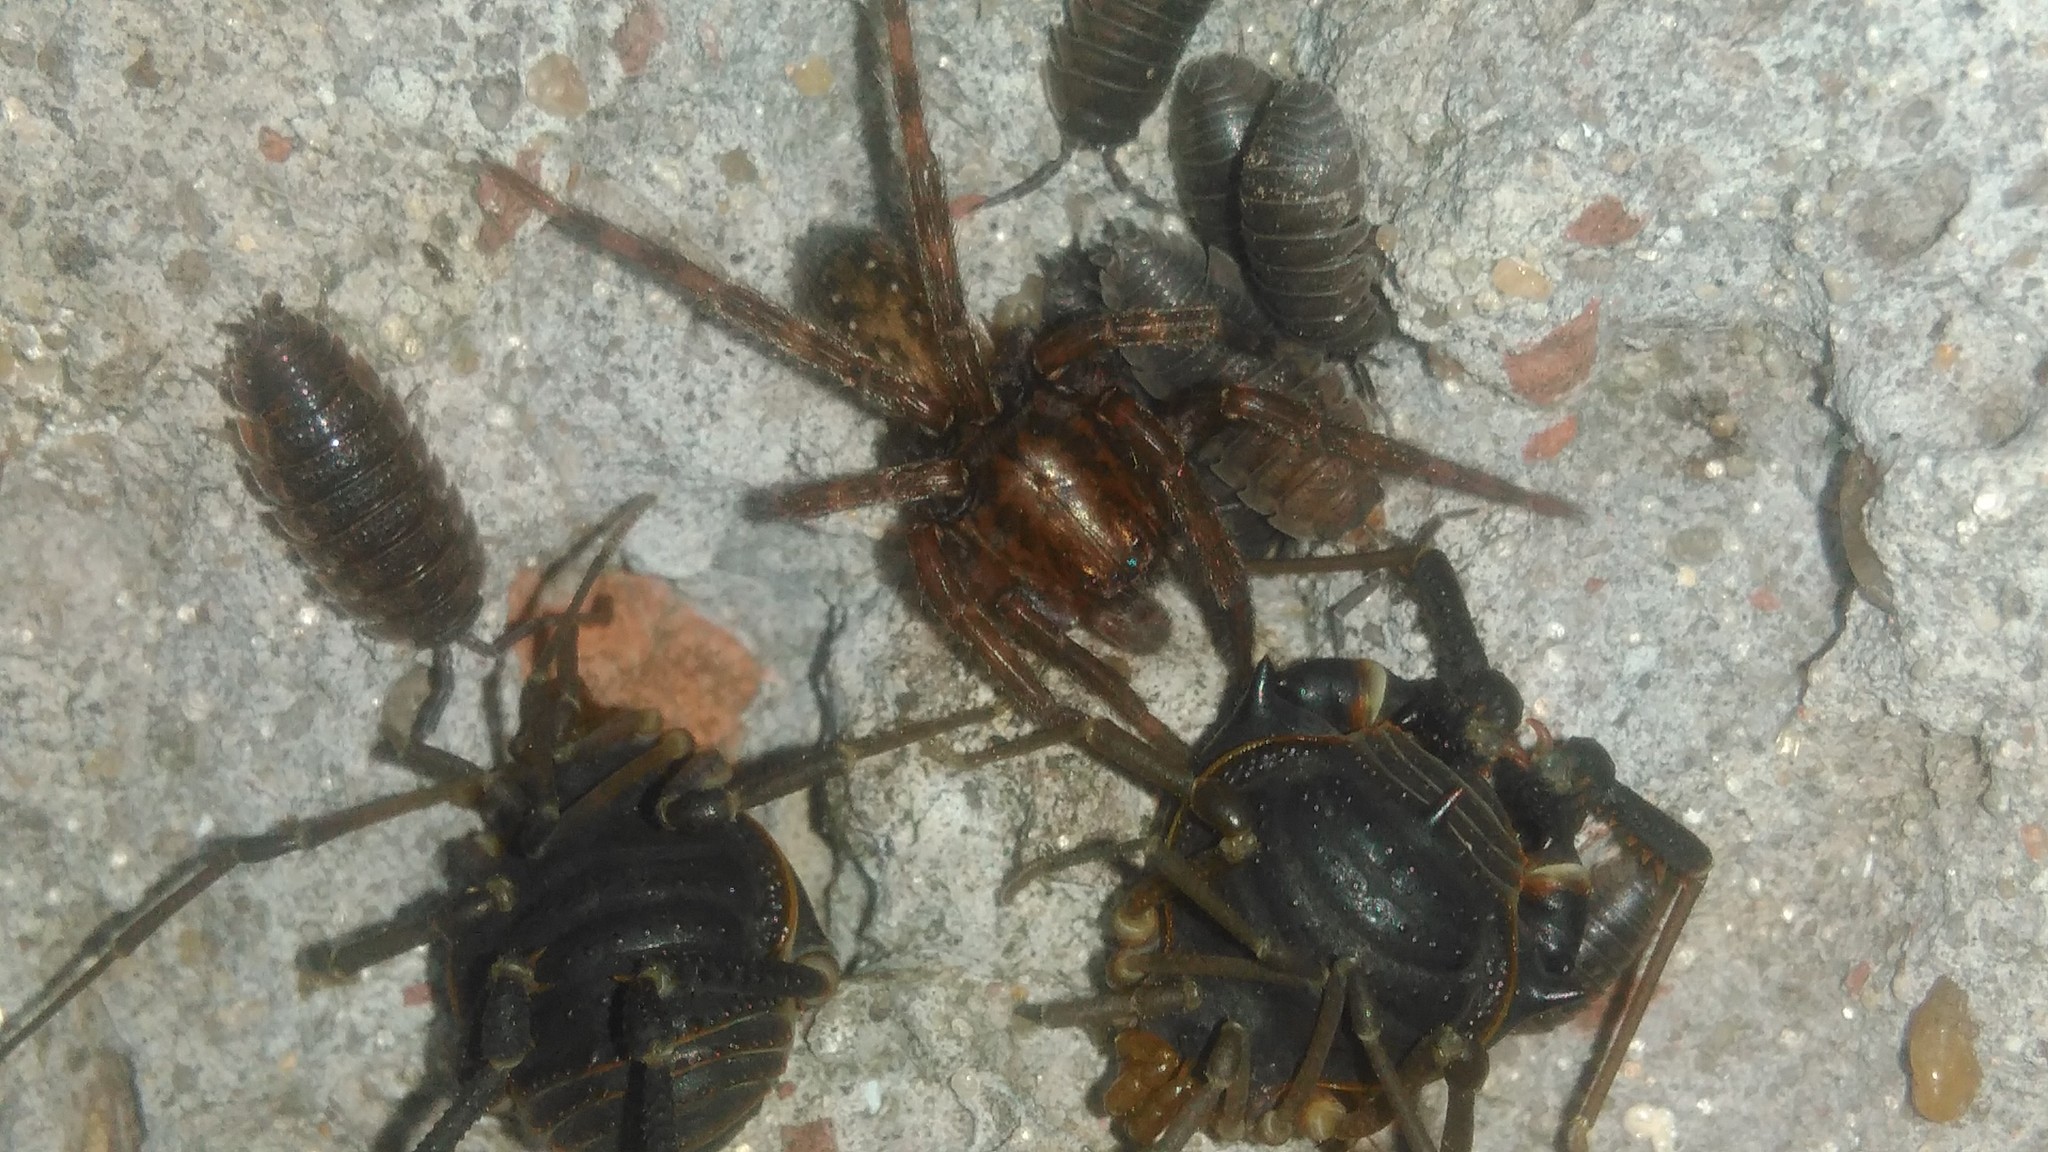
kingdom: Animalia
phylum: Arthropoda
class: Arachnida
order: Araneae
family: Ctenidae
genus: Asthenoctenus
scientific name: Asthenoctenus borellii
